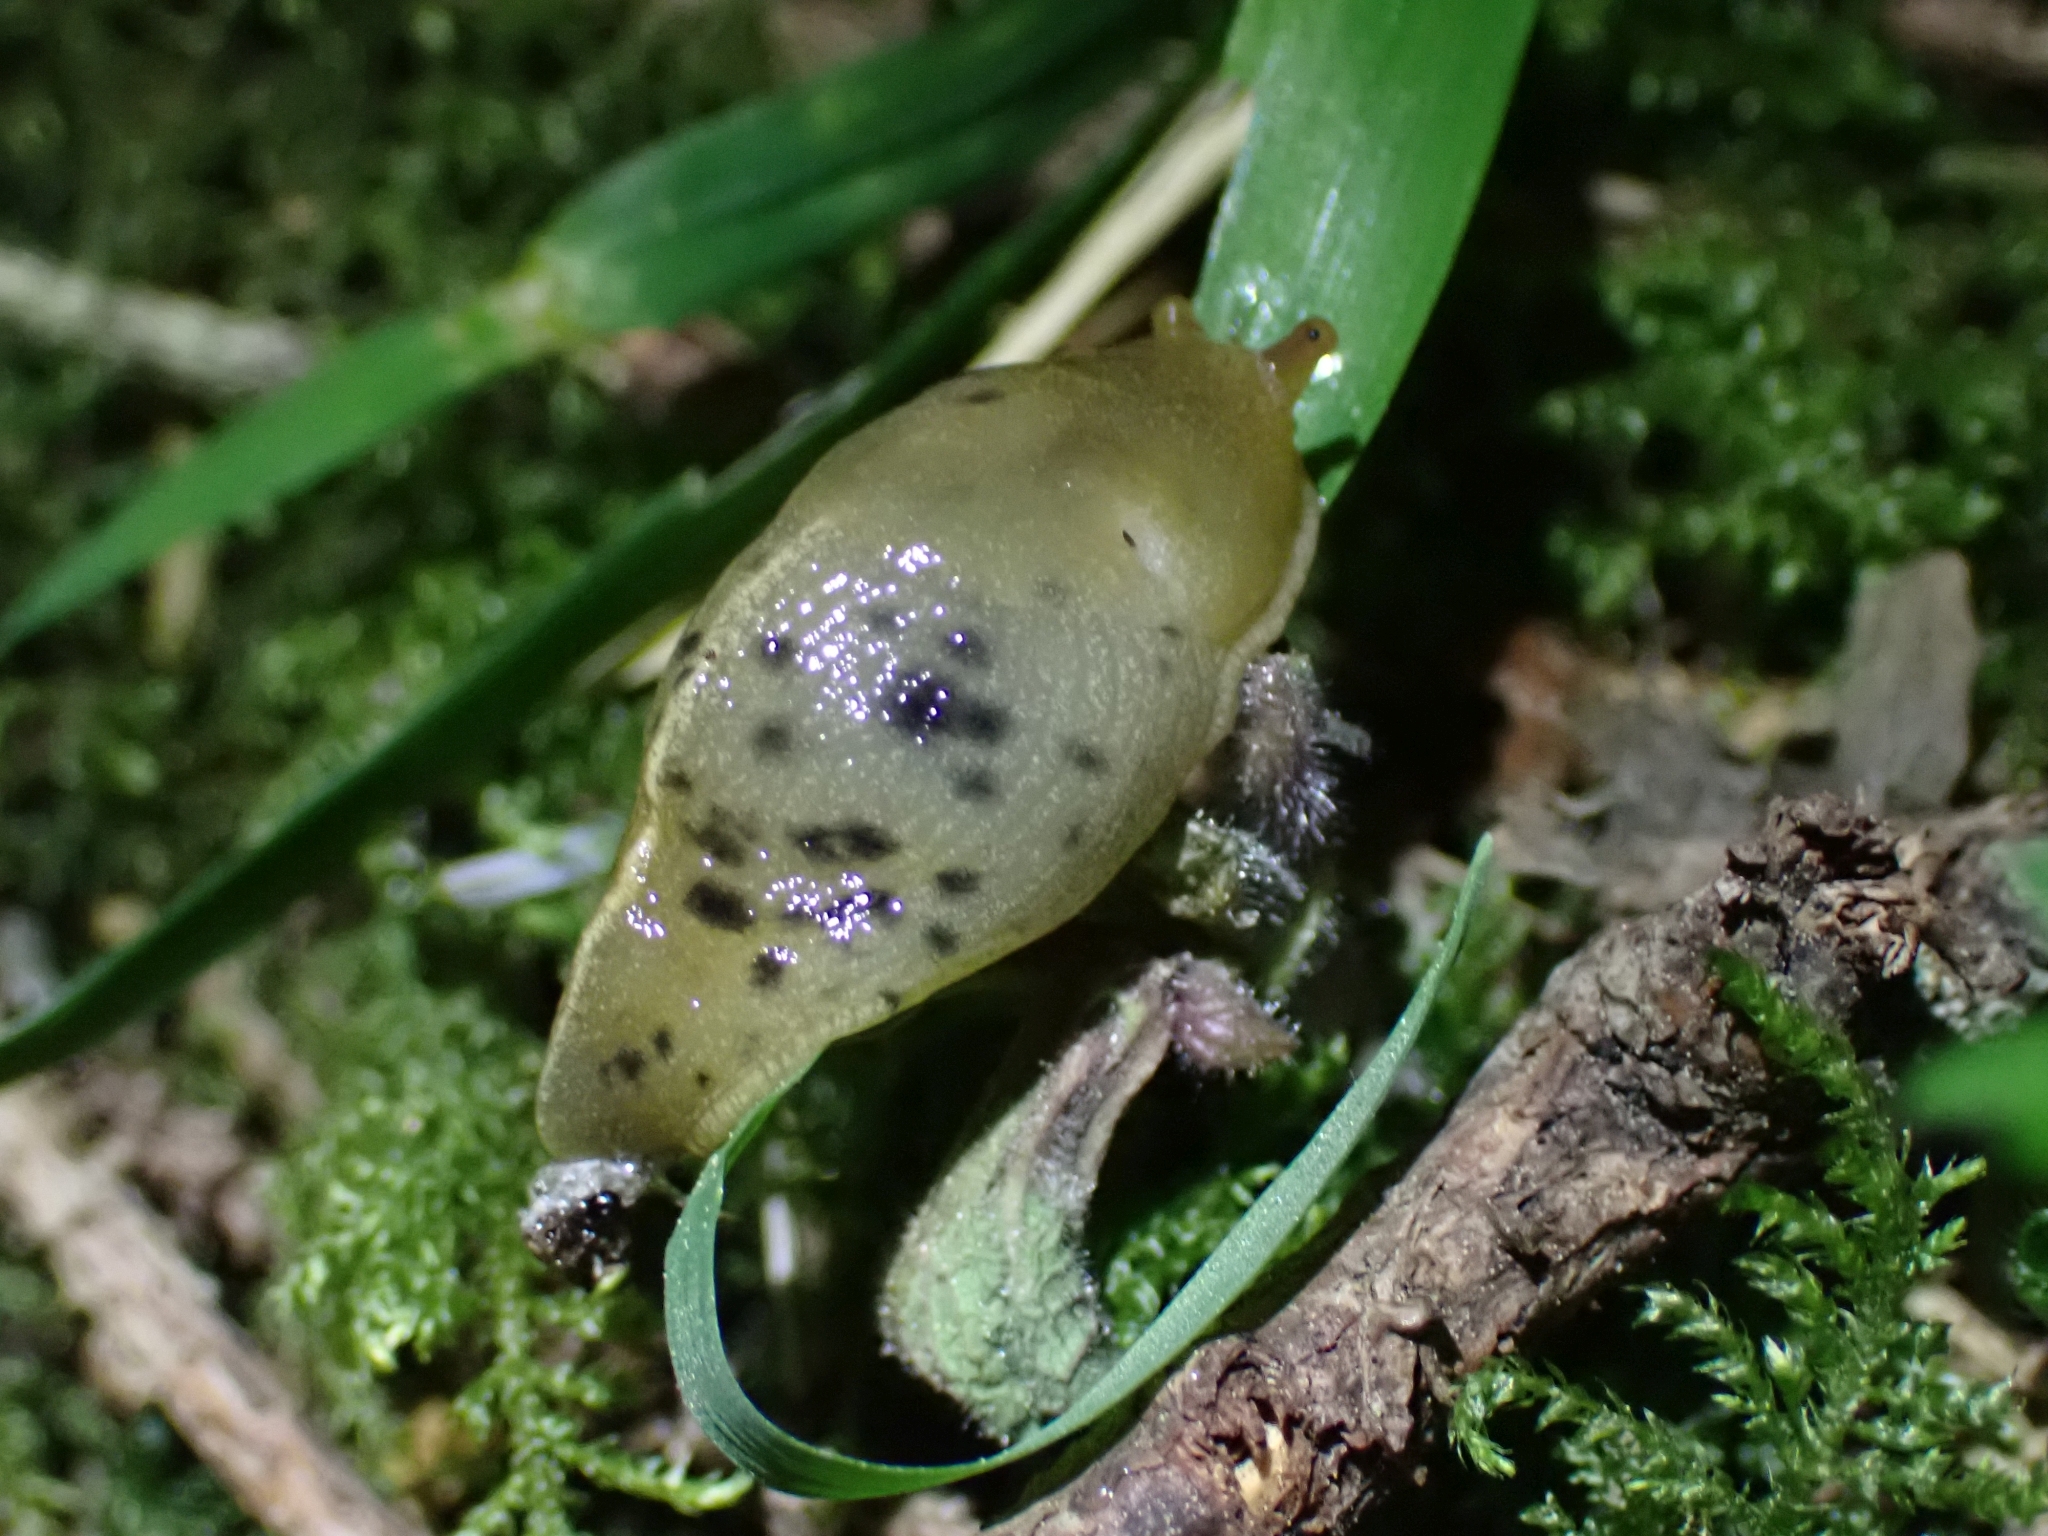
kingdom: Animalia
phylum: Mollusca
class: Gastropoda
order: Stylommatophora
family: Ariolimacidae
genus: Ariolimax
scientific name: Ariolimax columbianus
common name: Pacific banana slug
